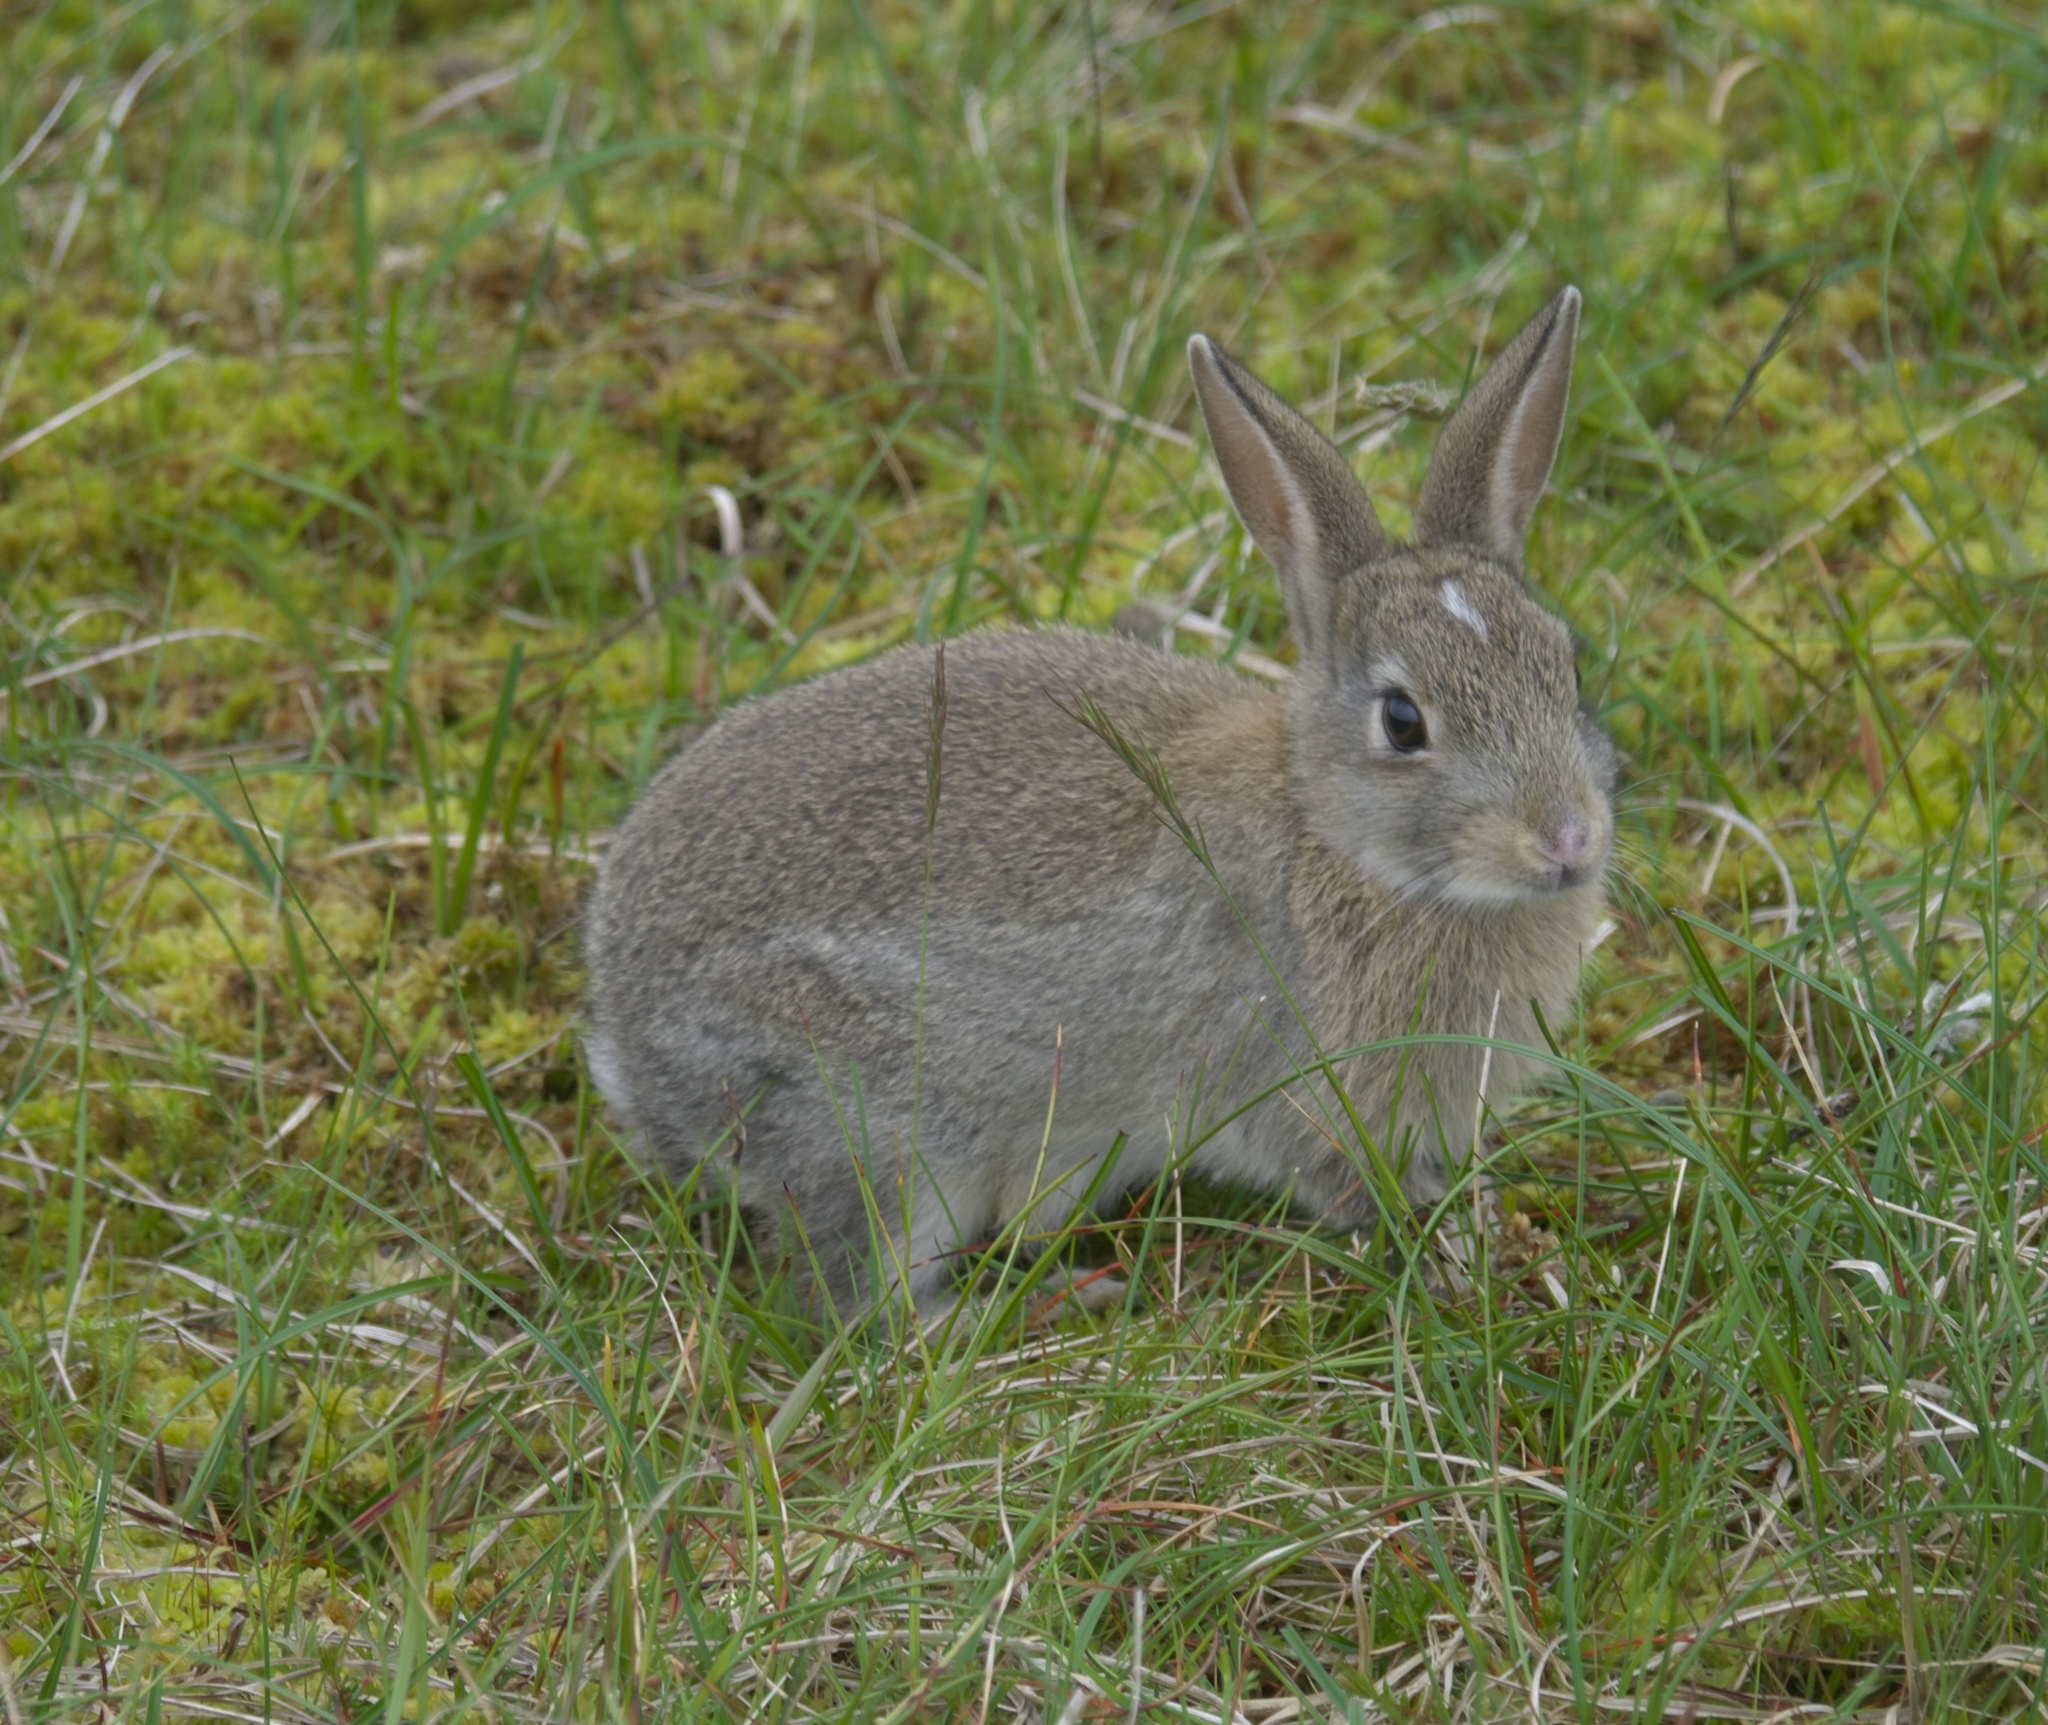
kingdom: Animalia
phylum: Chordata
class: Mammalia
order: Lagomorpha
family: Leporidae
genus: Oryctolagus
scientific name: Oryctolagus cuniculus
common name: European rabbit
